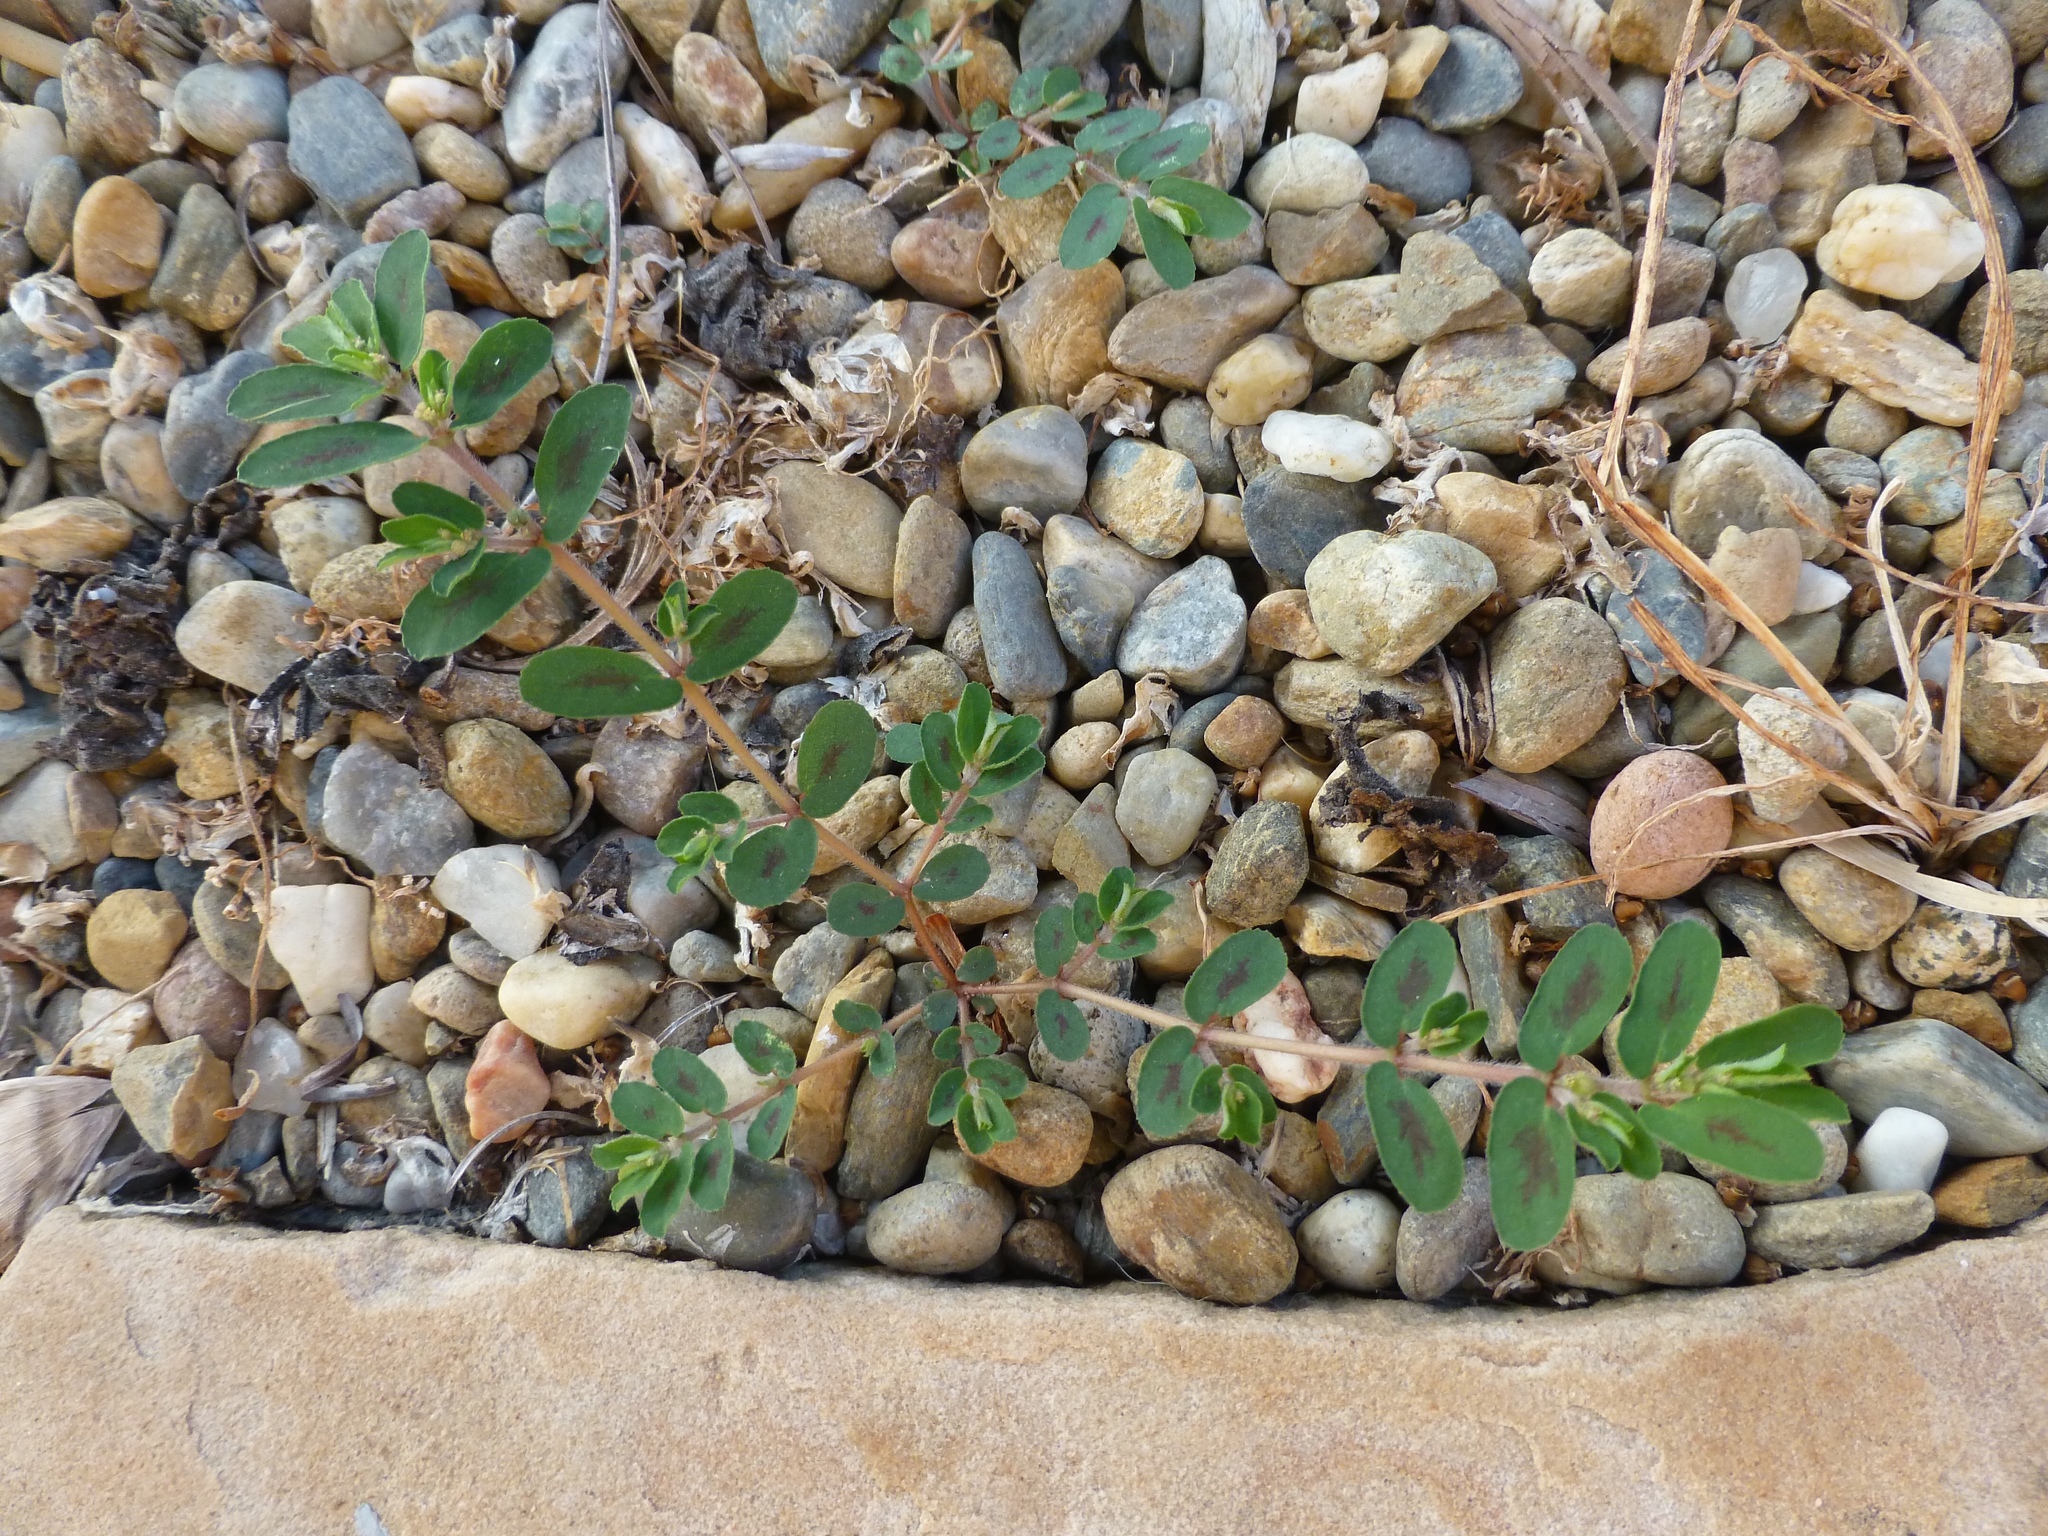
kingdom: Plantae
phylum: Tracheophyta
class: Magnoliopsida
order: Malpighiales
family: Euphorbiaceae
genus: Euphorbia
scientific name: Euphorbia maculata
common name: Spotted spurge
